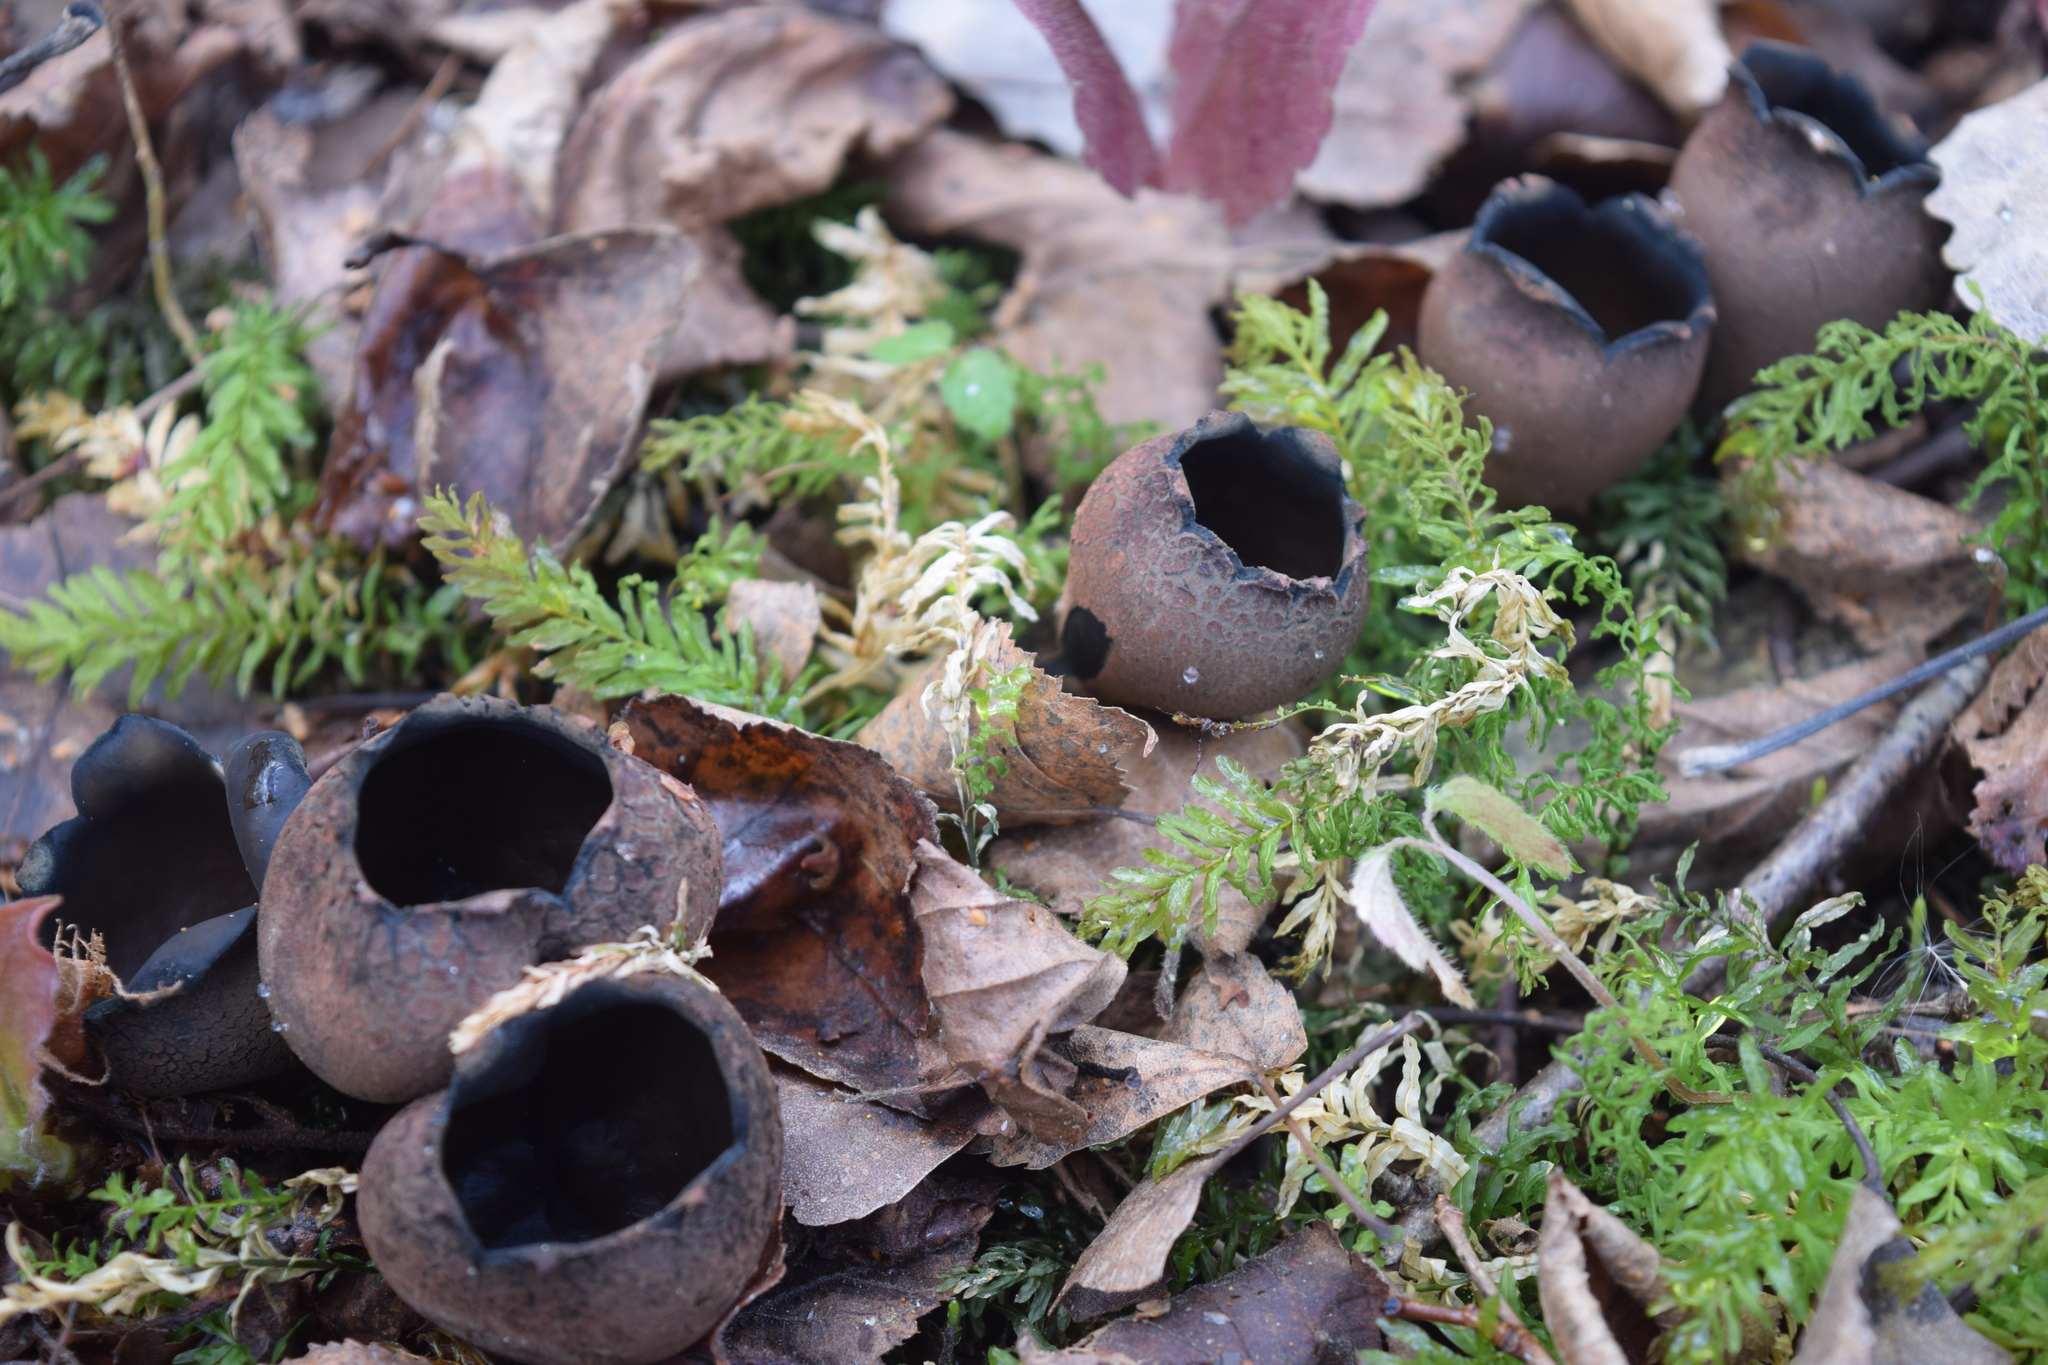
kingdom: Fungi
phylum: Ascomycota
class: Pezizomycetes
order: Pezizales
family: Sarcosomataceae
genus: Urnula
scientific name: Urnula craterium
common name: Devil's urn
